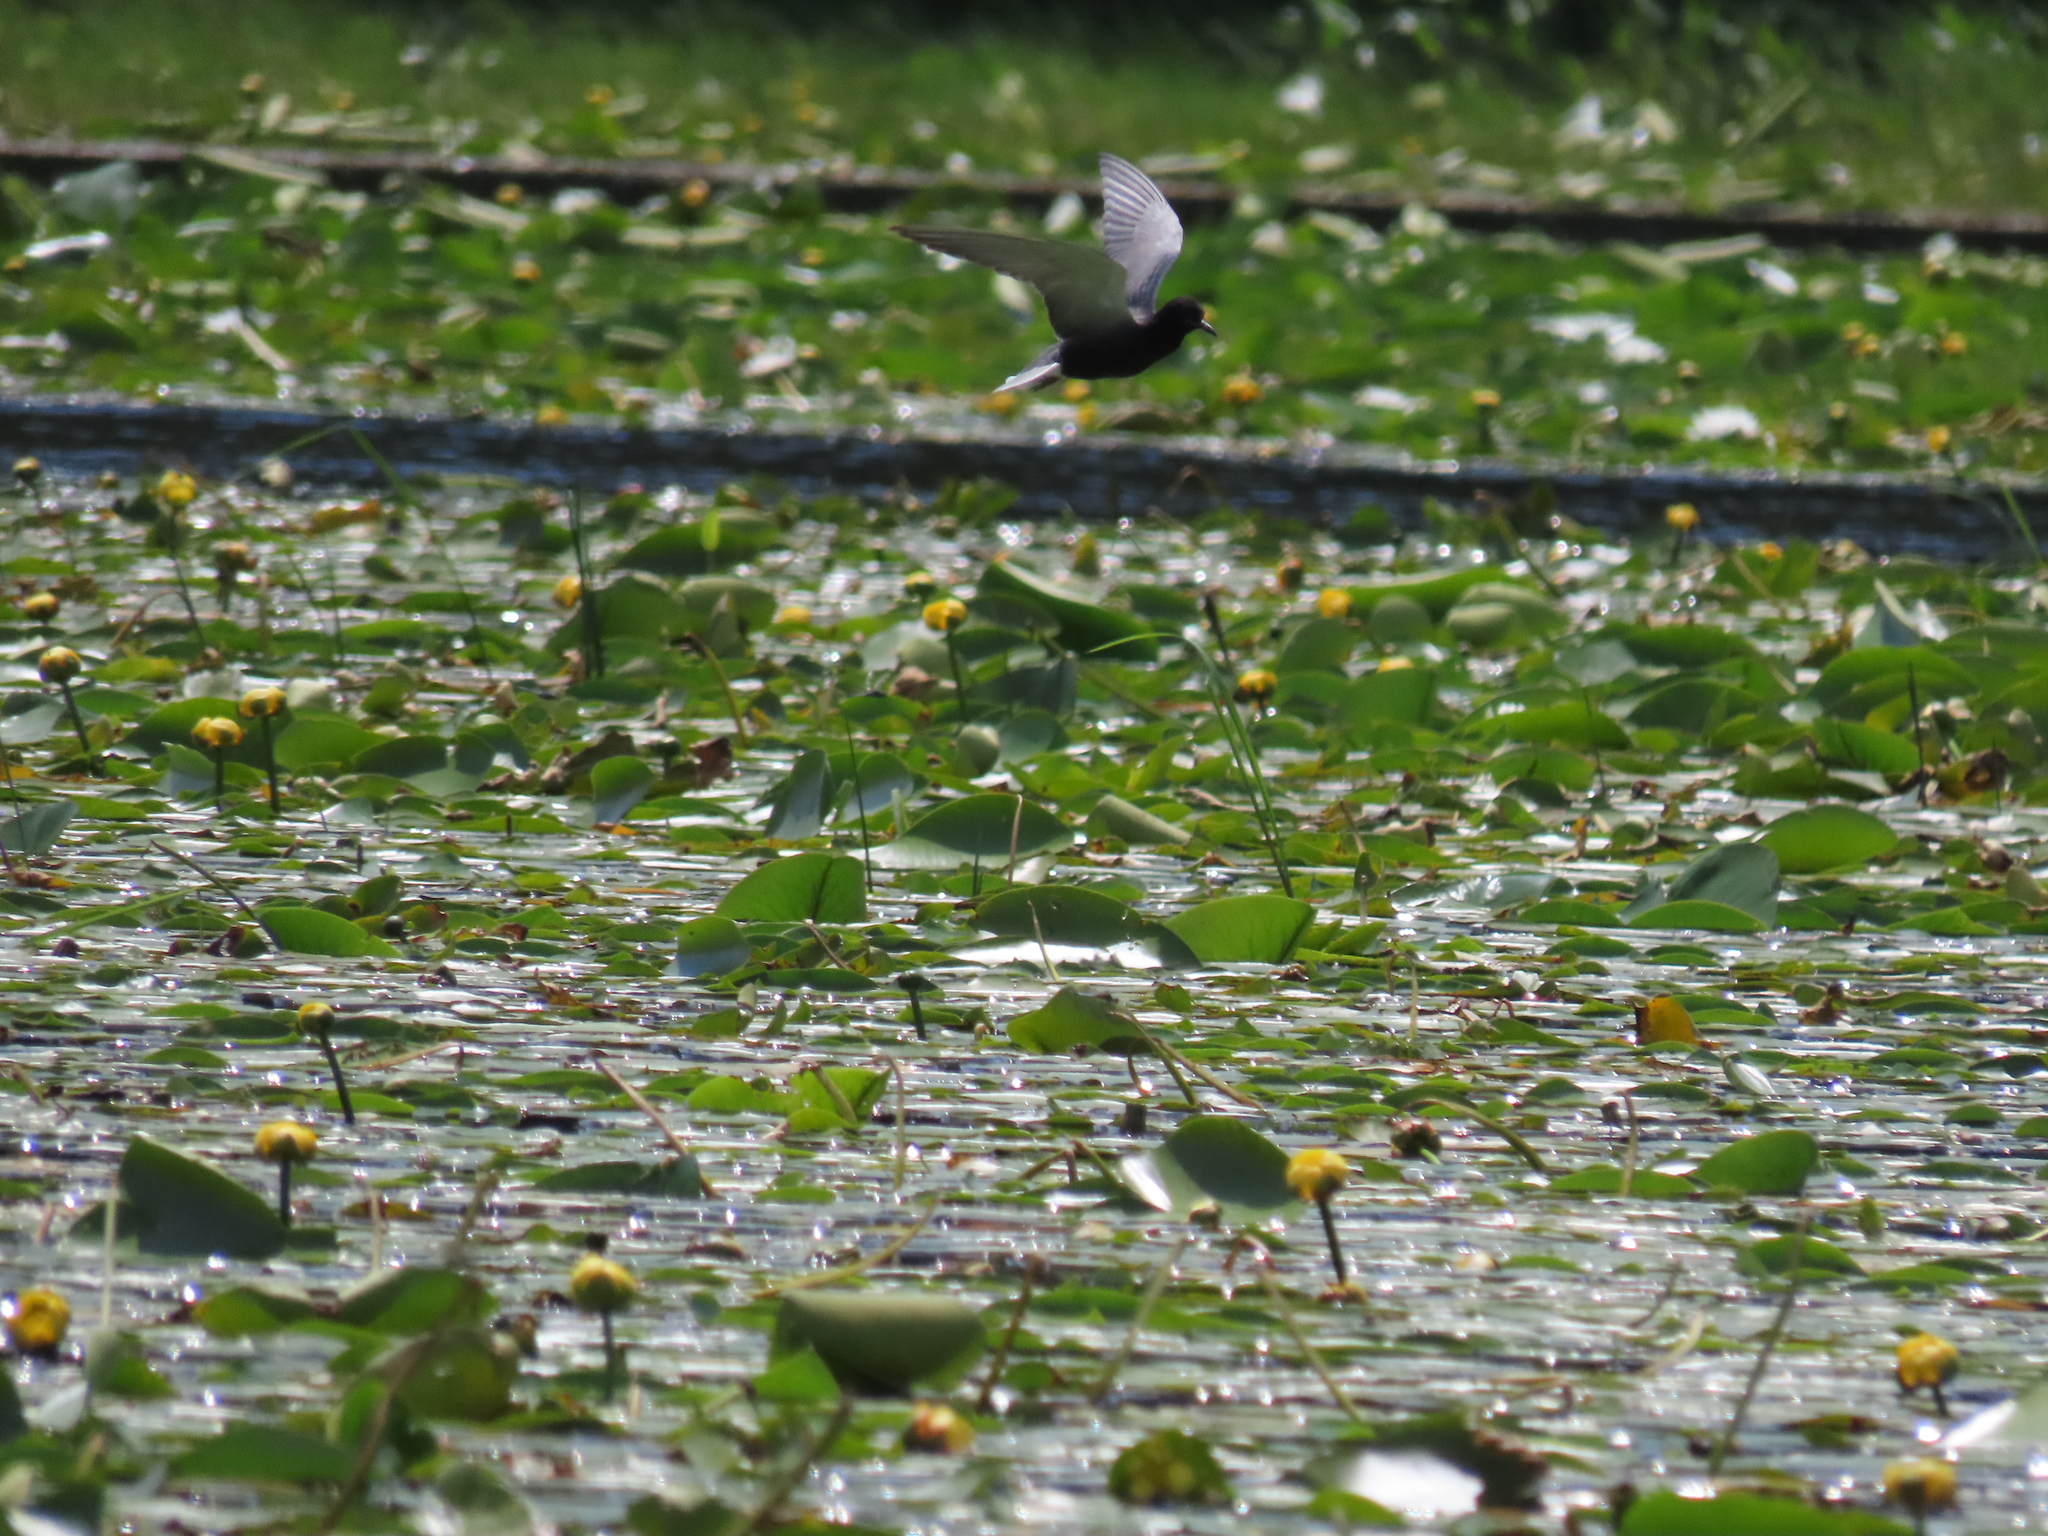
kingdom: Animalia
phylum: Chordata
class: Aves
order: Charadriiformes
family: Laridae
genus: Chlidonias
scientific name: Chlidonias niger
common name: Black tern
